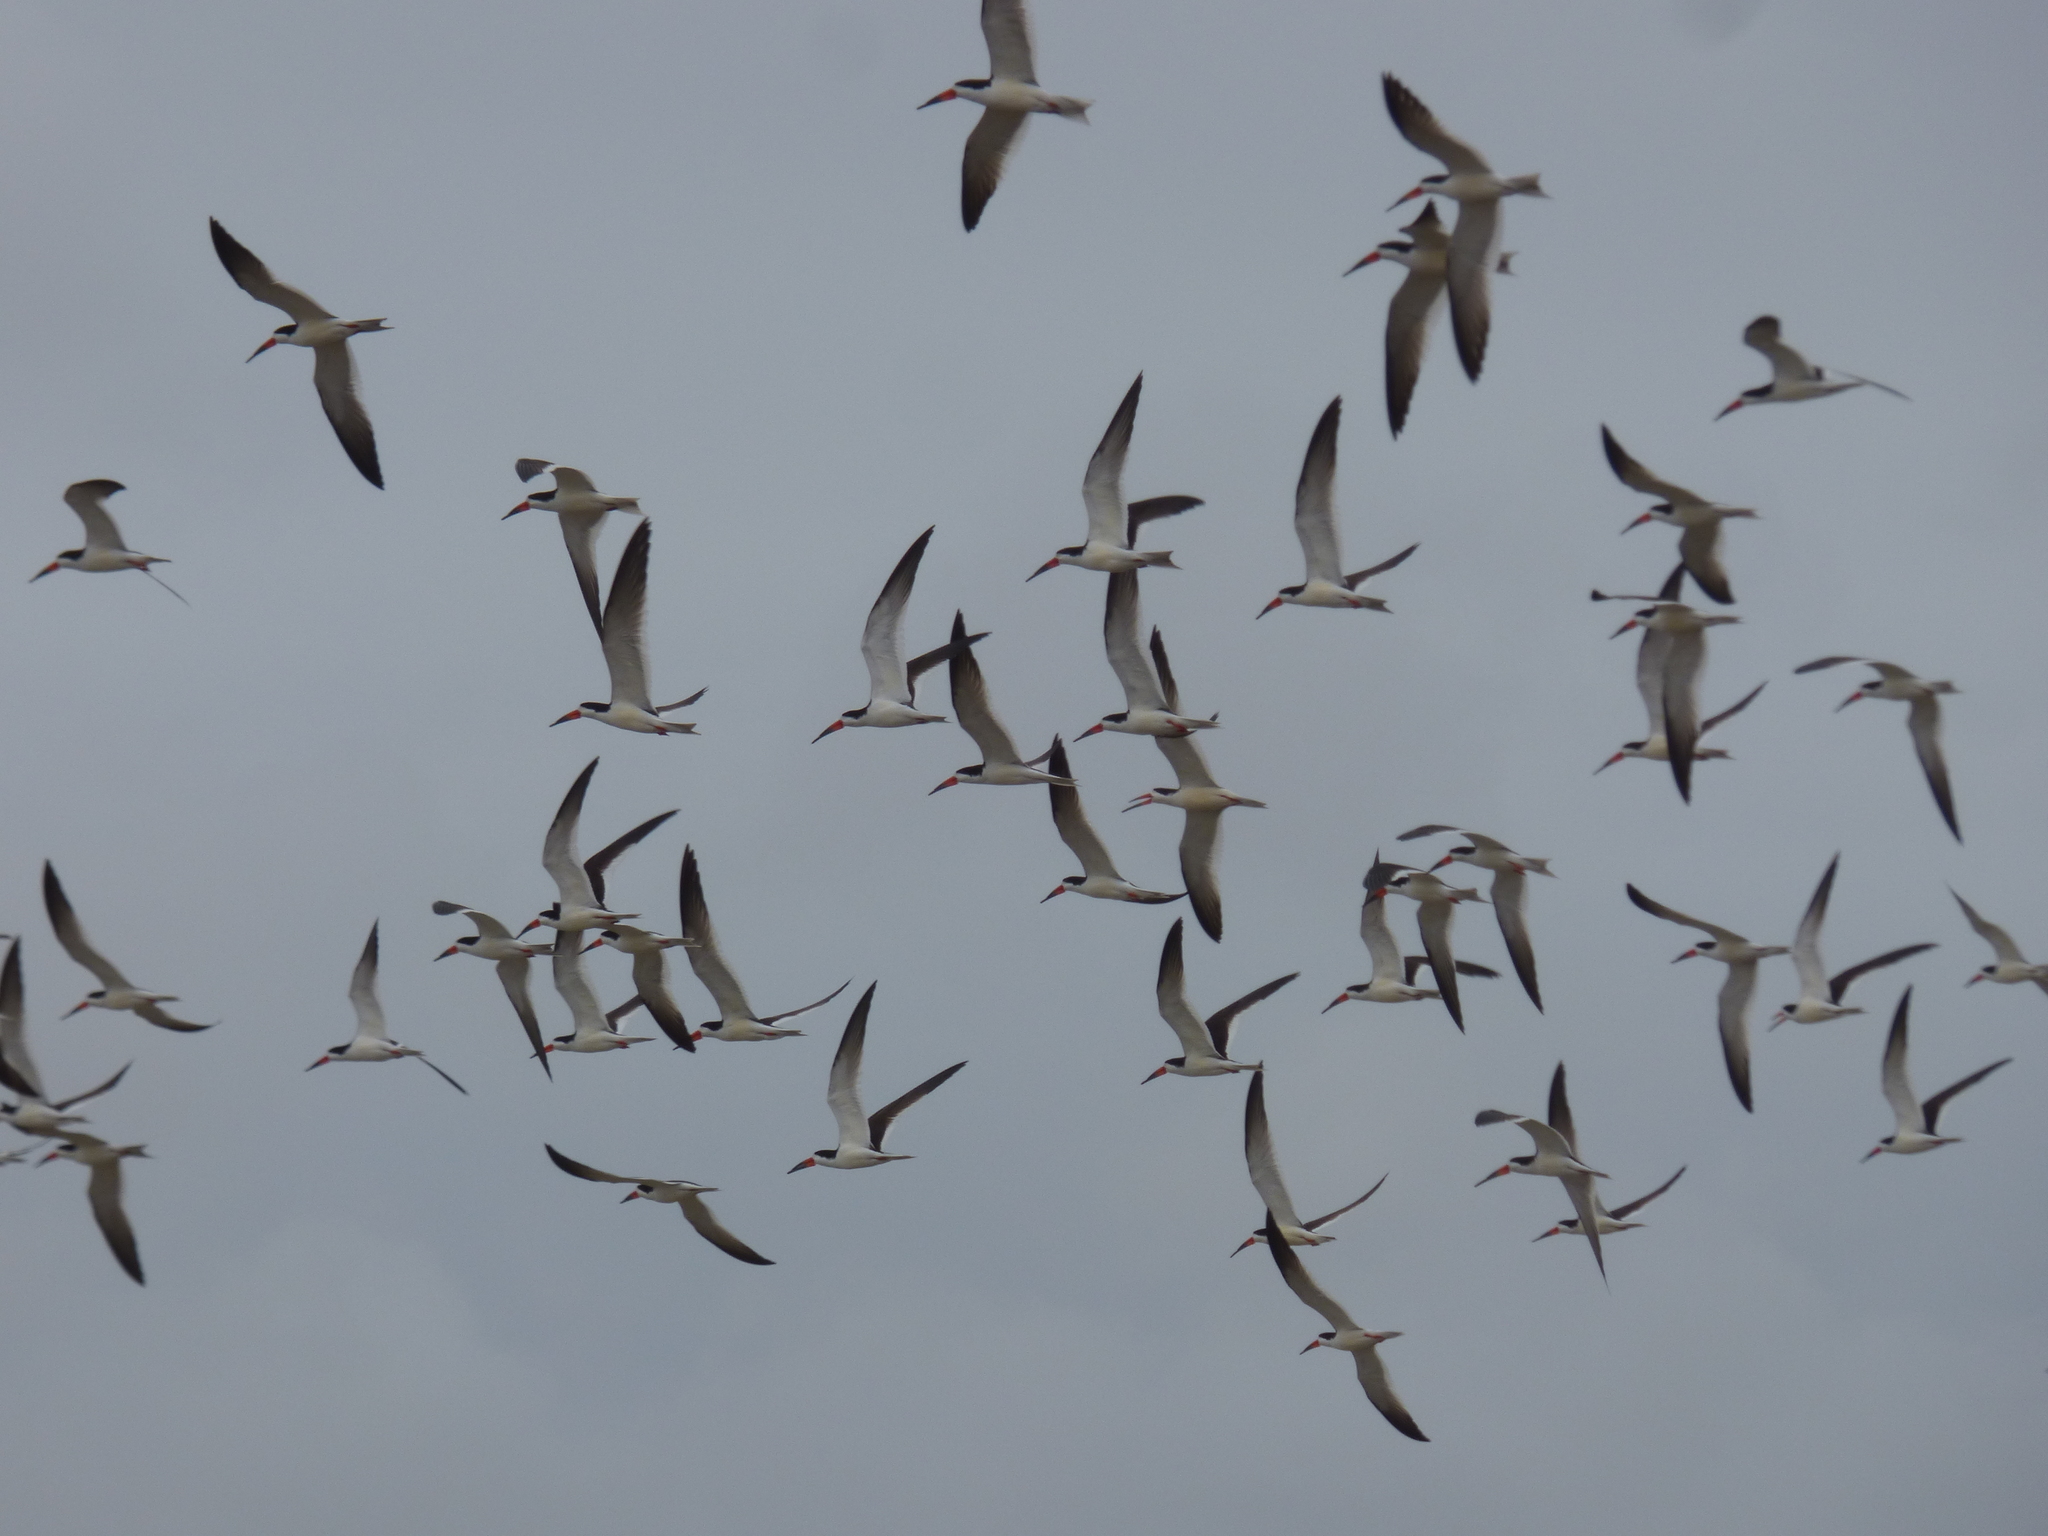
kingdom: Animalia
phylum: Chordata
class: Aves
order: Charadriiformes
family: Laridae
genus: Rynchops
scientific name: Rynchops niger
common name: Black skimmer
